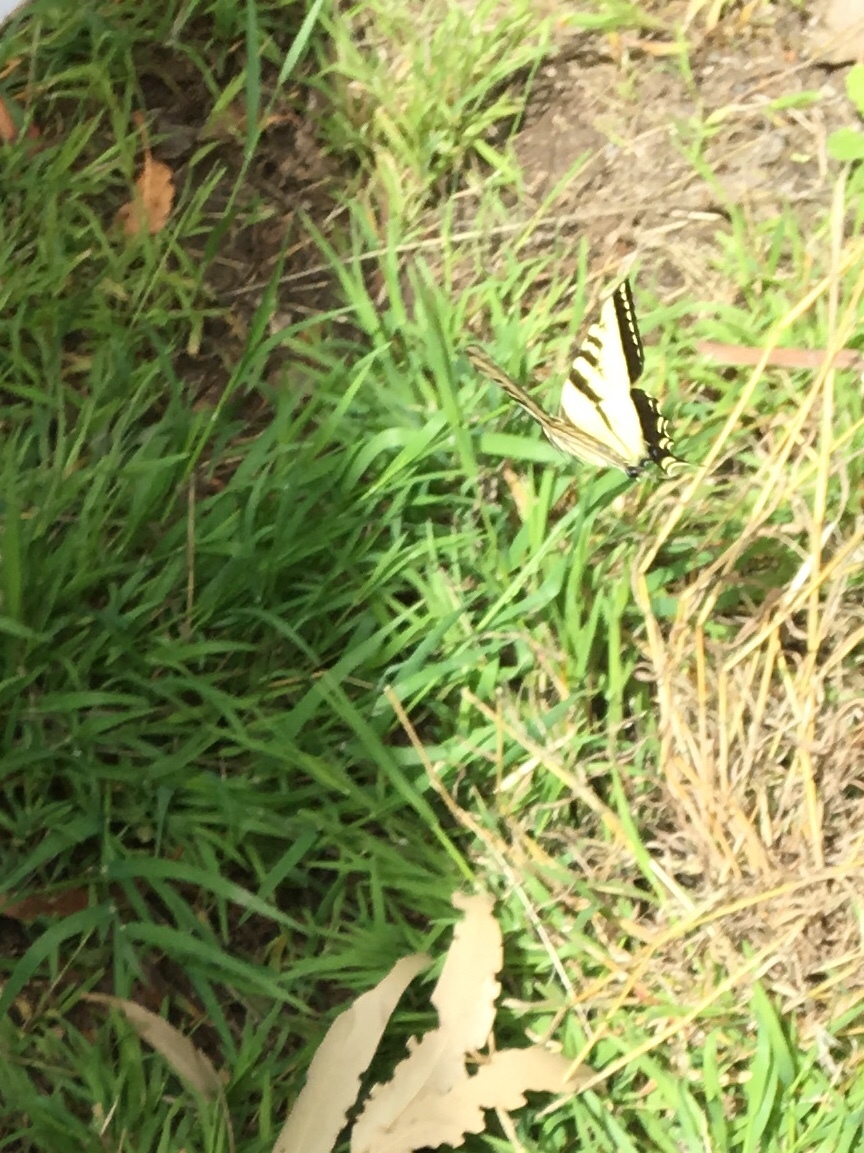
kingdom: Animalia
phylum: Arthropoda
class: Insecta
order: Lepidoptera
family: Papilionidae
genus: Papilio
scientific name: Papilio rutulus
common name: Western tiger swallowtail
